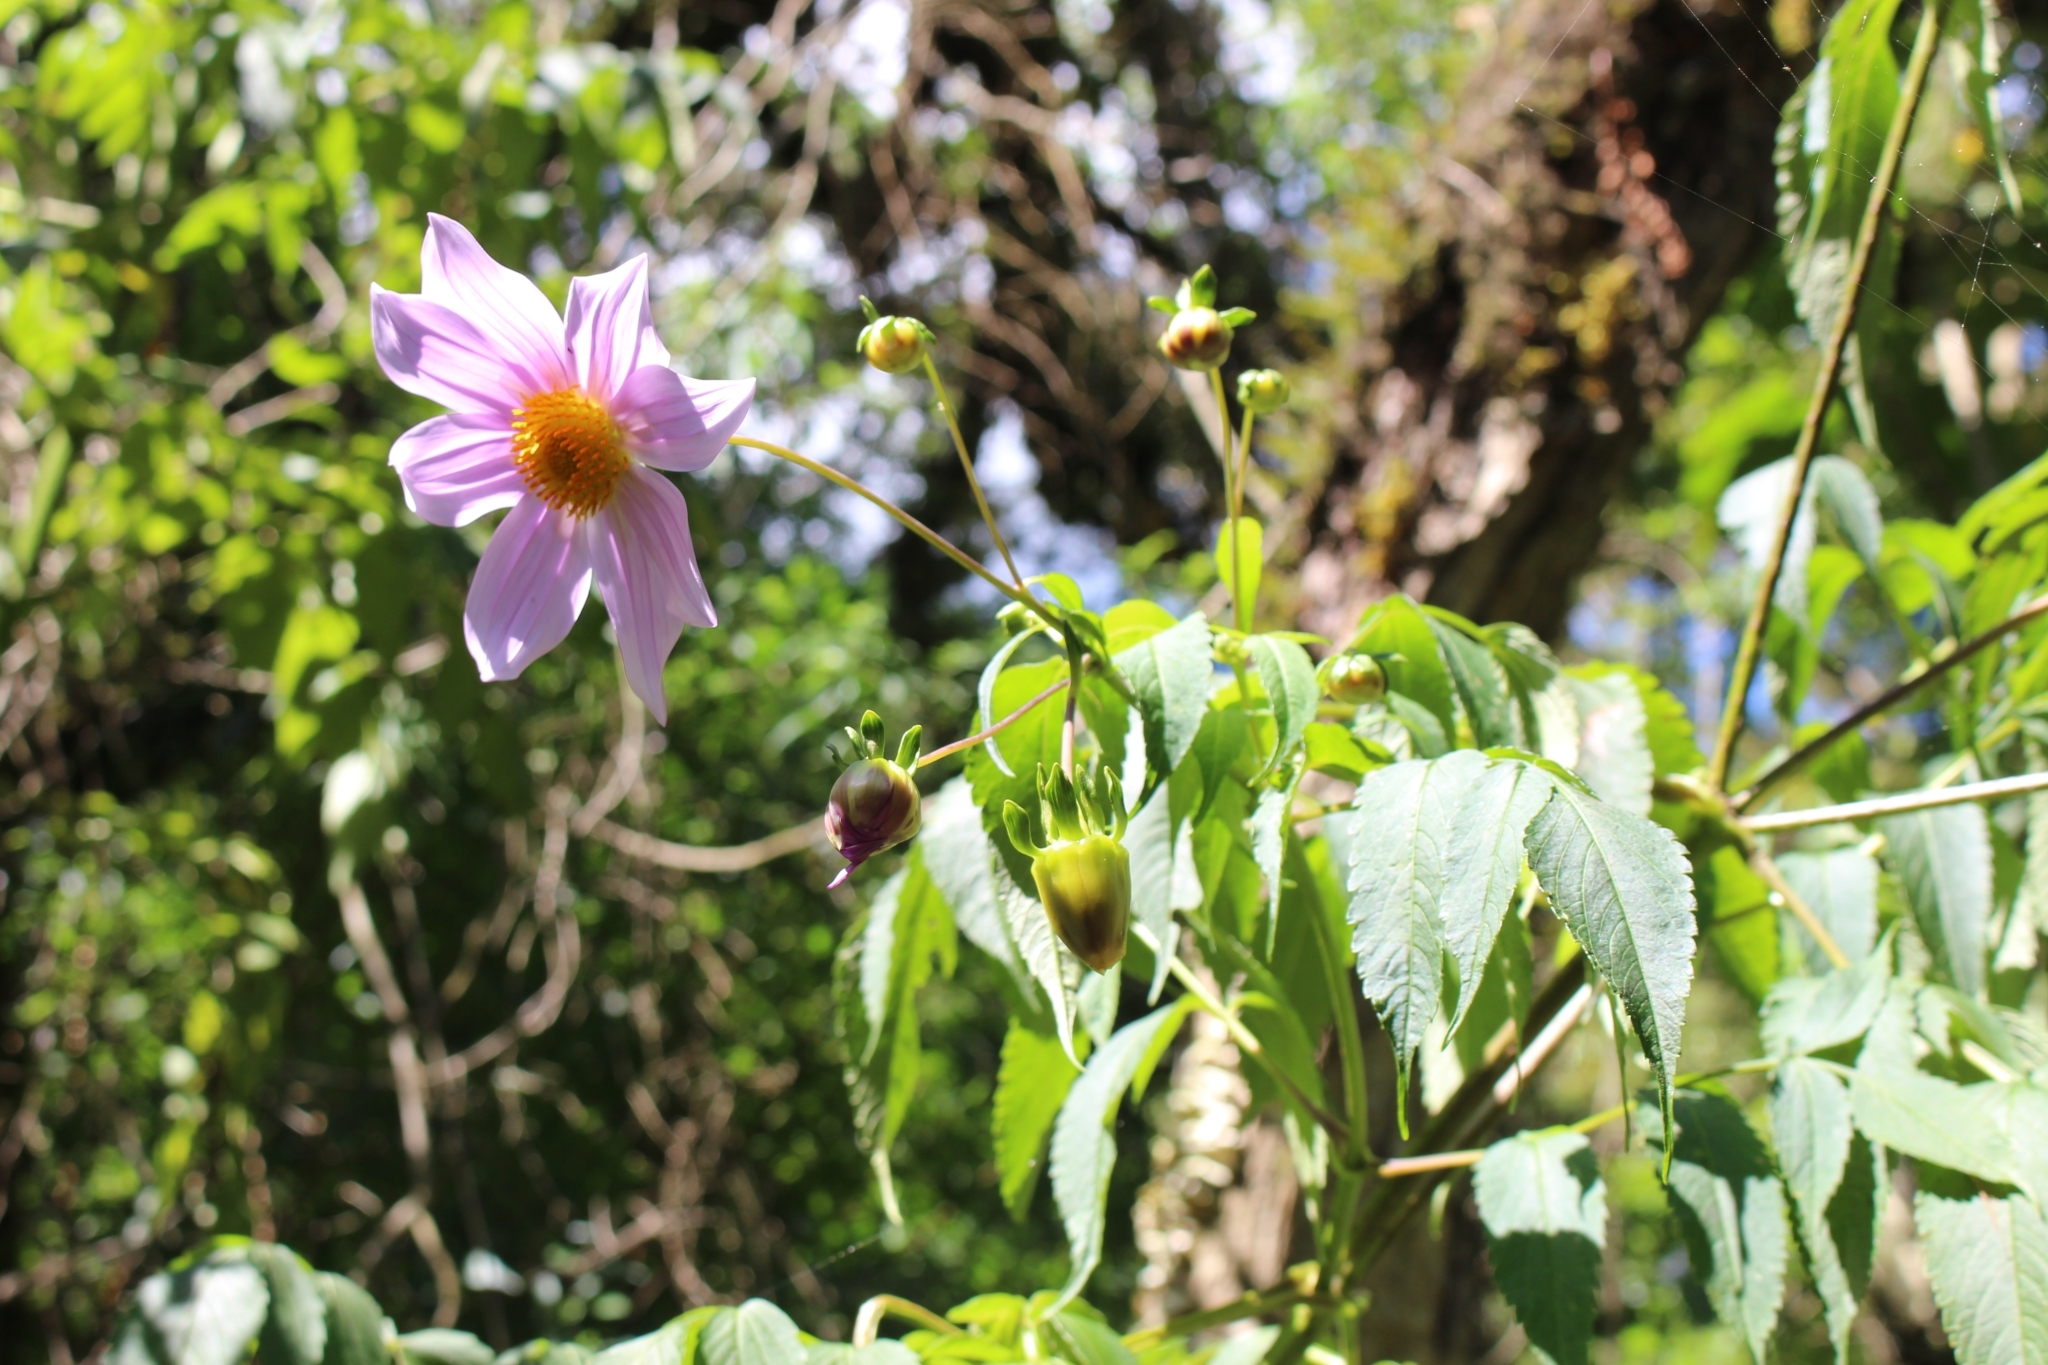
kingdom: Plantae
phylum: Tracheophyta
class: Magnoliopsida
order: Asterales
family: Asteraceae
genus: Dahlia
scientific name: Dahlia imperialis
